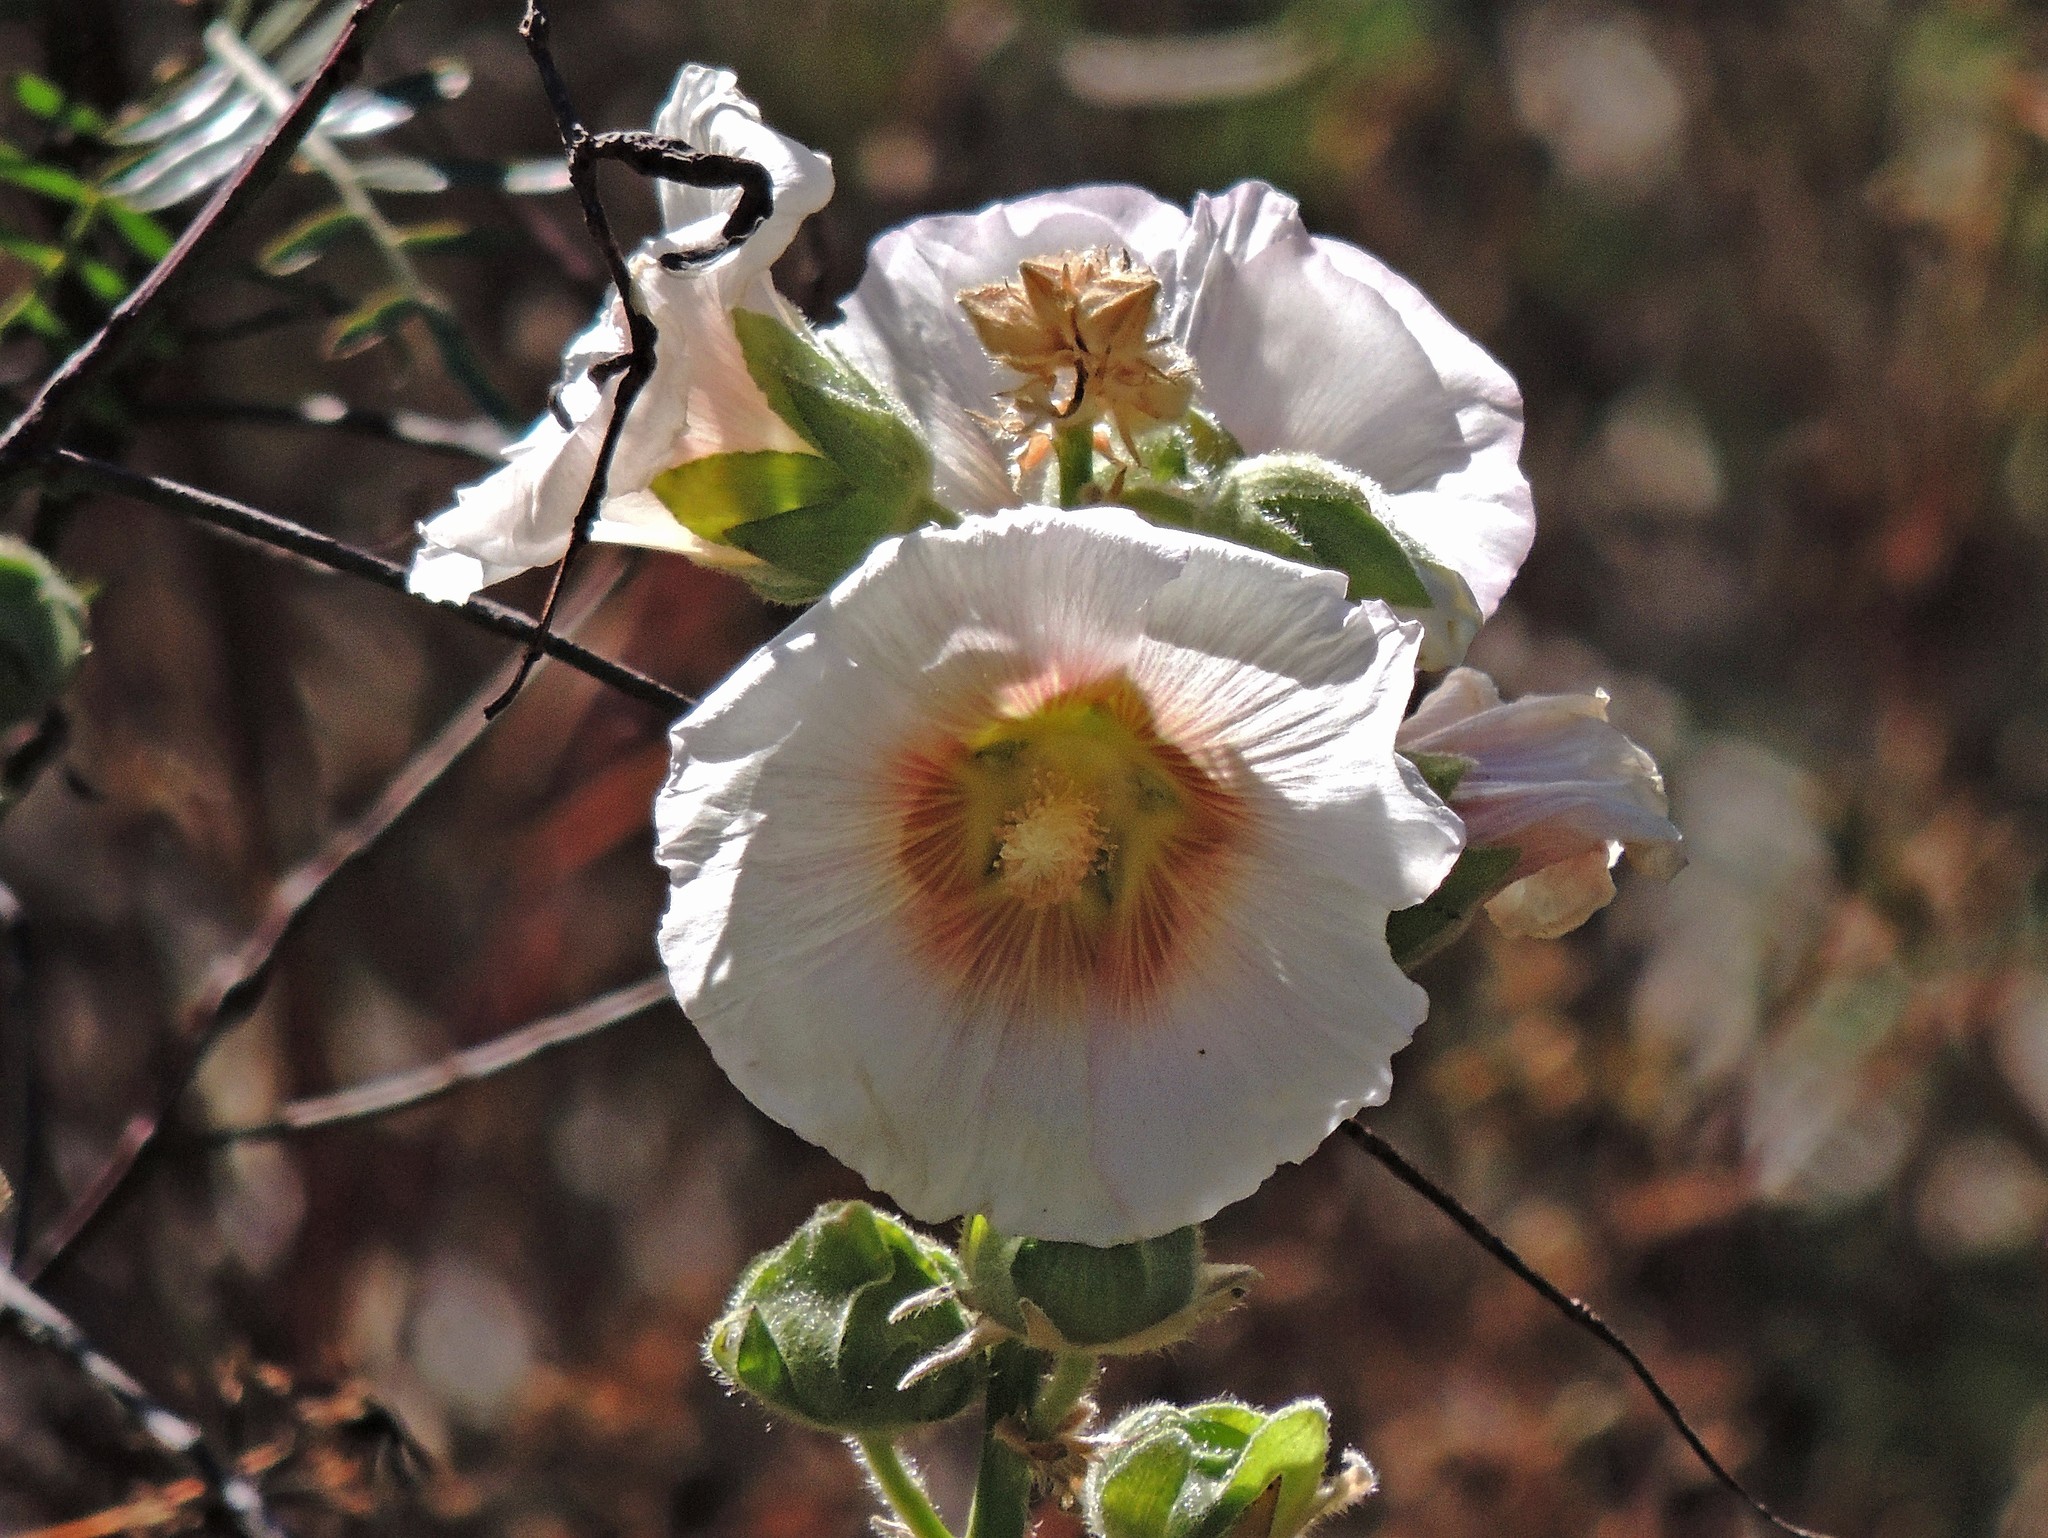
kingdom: Plantae
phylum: Tracheophyta
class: Magnoliopsida
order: Malvales
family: Malvaceae
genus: Alcea
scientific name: Alcea rosea
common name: Hollyhock
